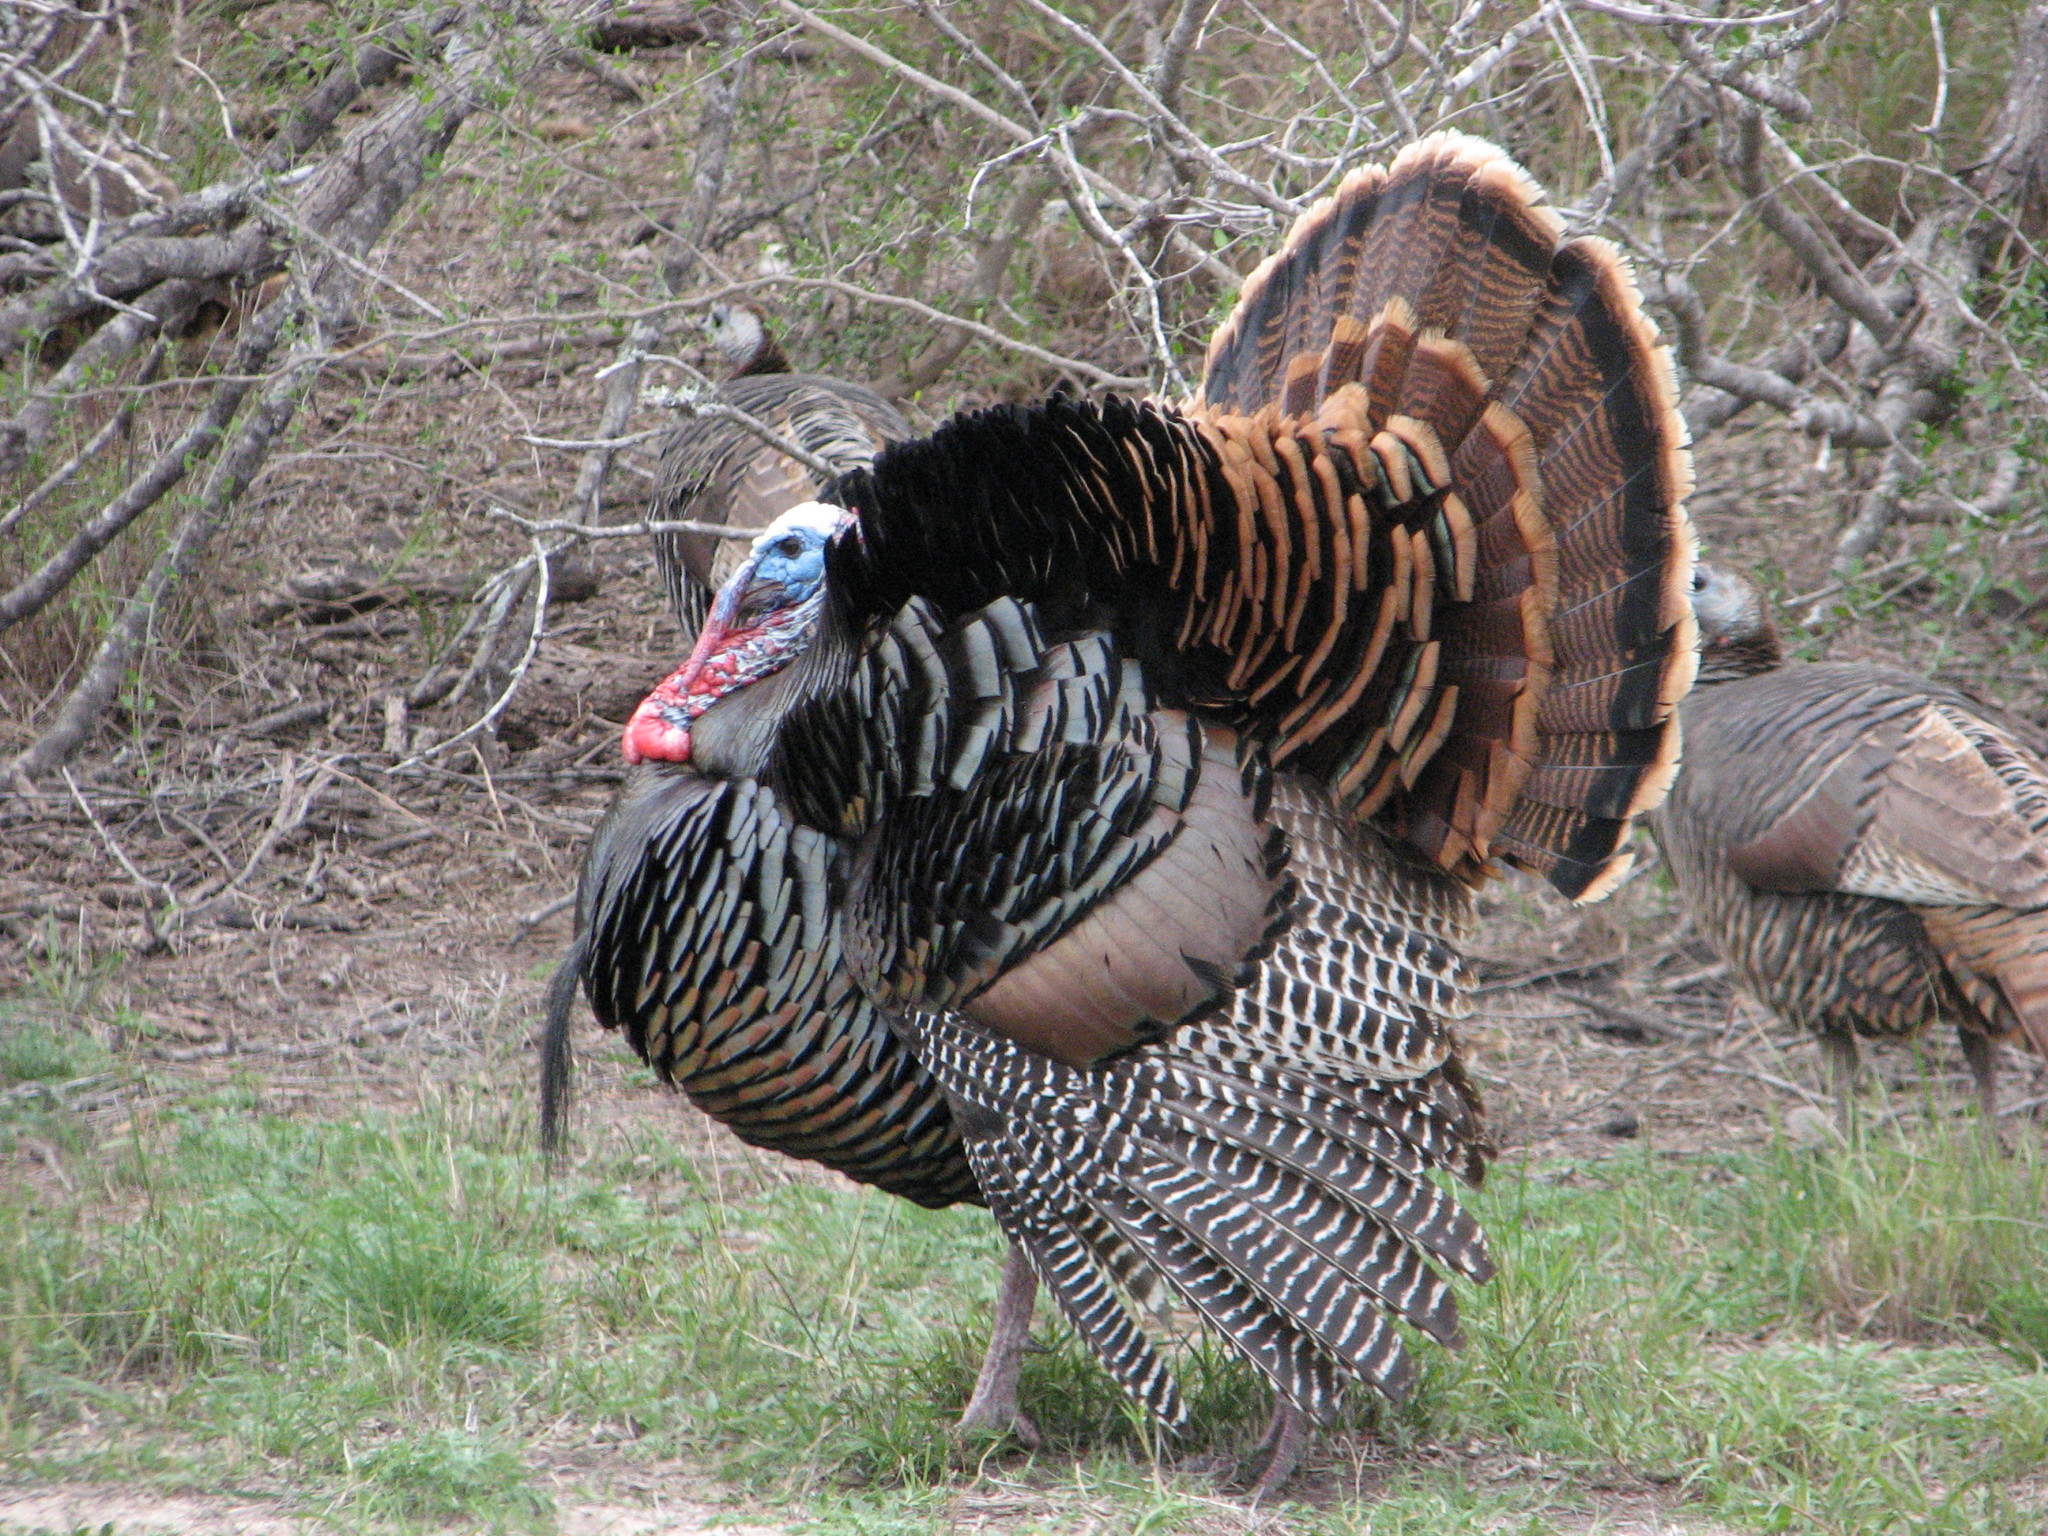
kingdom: Animalia
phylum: Chordata
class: Aves
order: Galliformes
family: Phasianidae
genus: Meleagris
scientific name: Meleagris gallopavo
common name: Wild turkey
